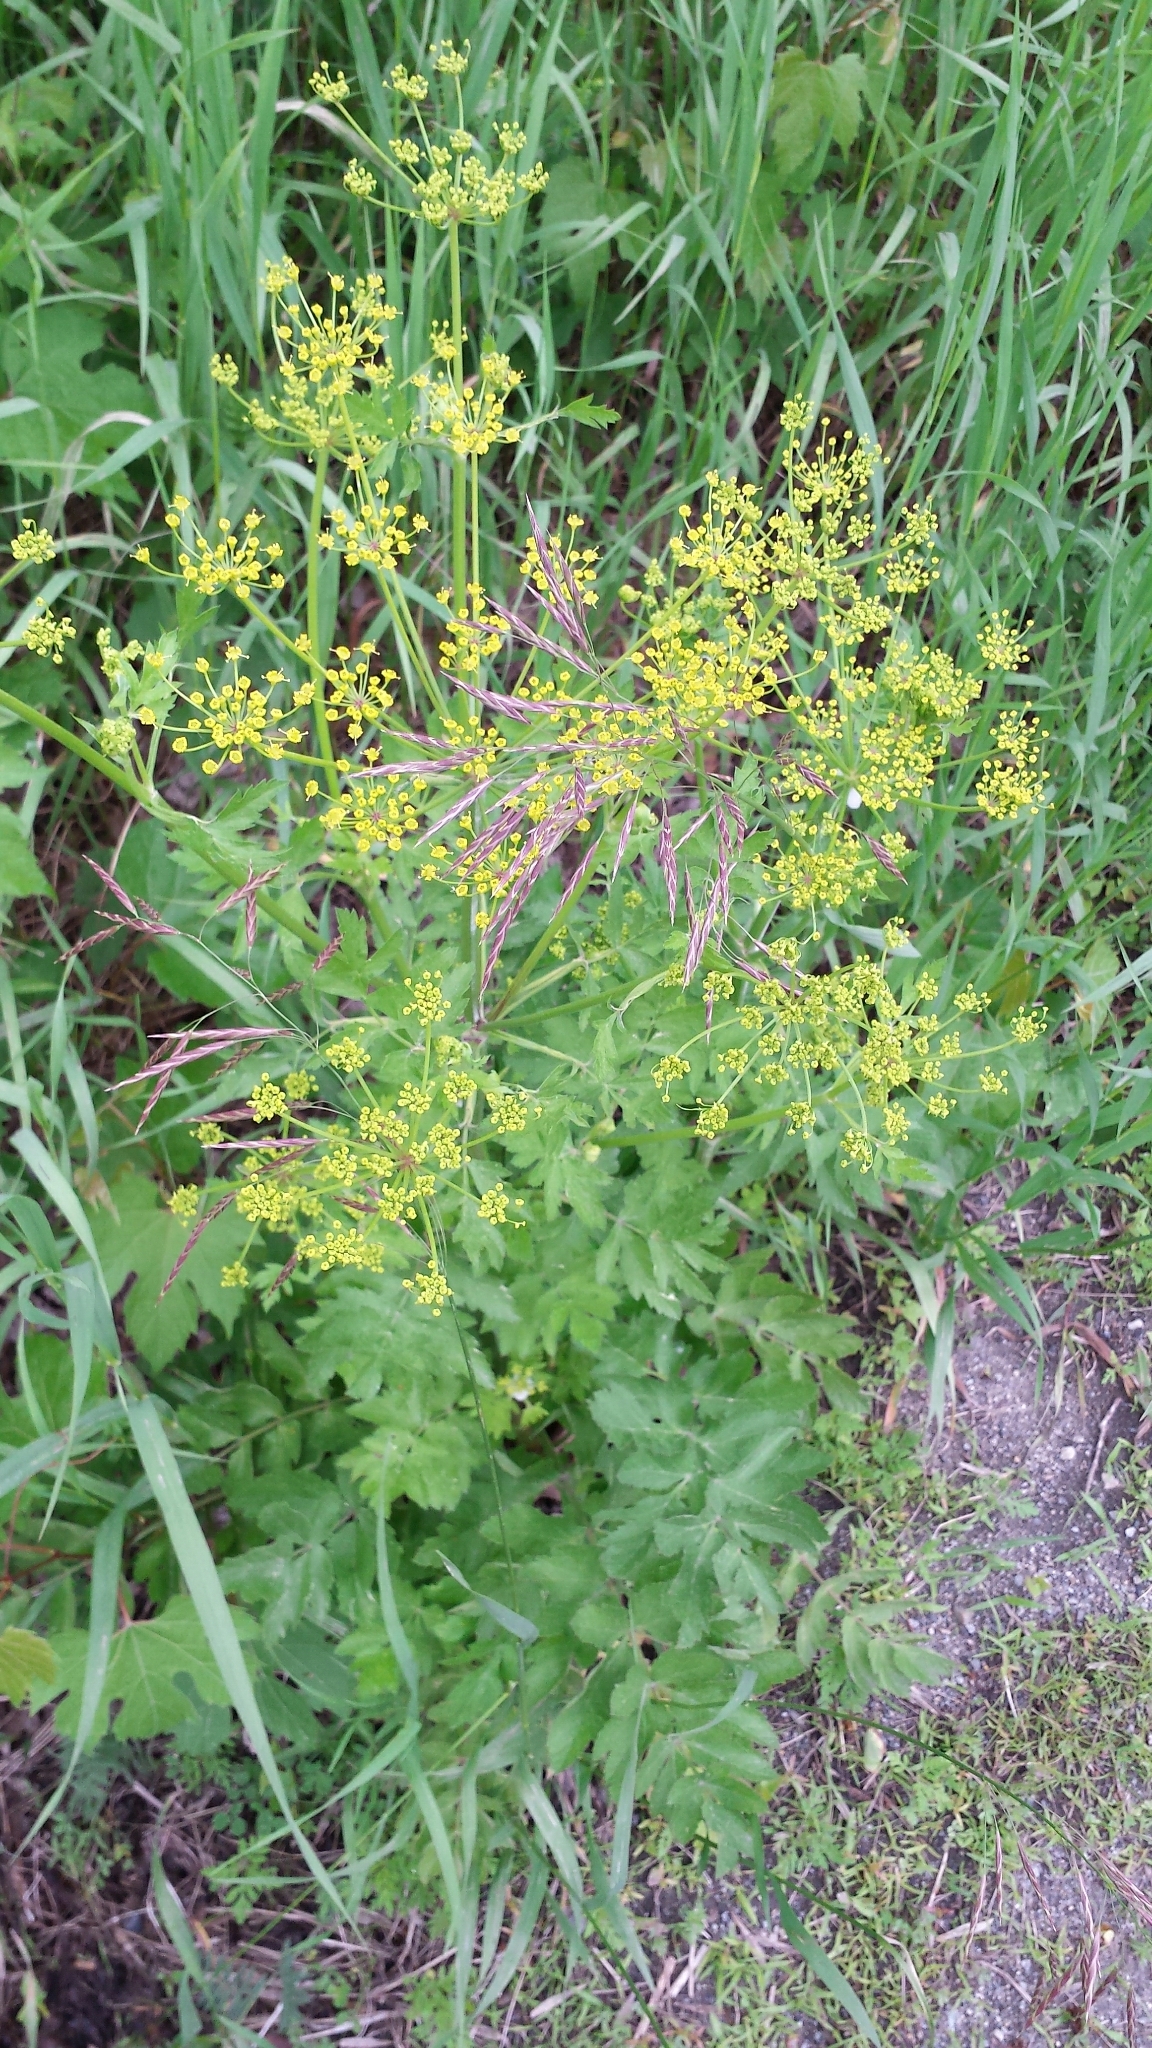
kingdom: Plantae
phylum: Tracheophyta
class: Magnoliopsida
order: Apiales
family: Apiaceae
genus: Pastinaca
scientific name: Pastinaca sativa
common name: Wild parsnip
